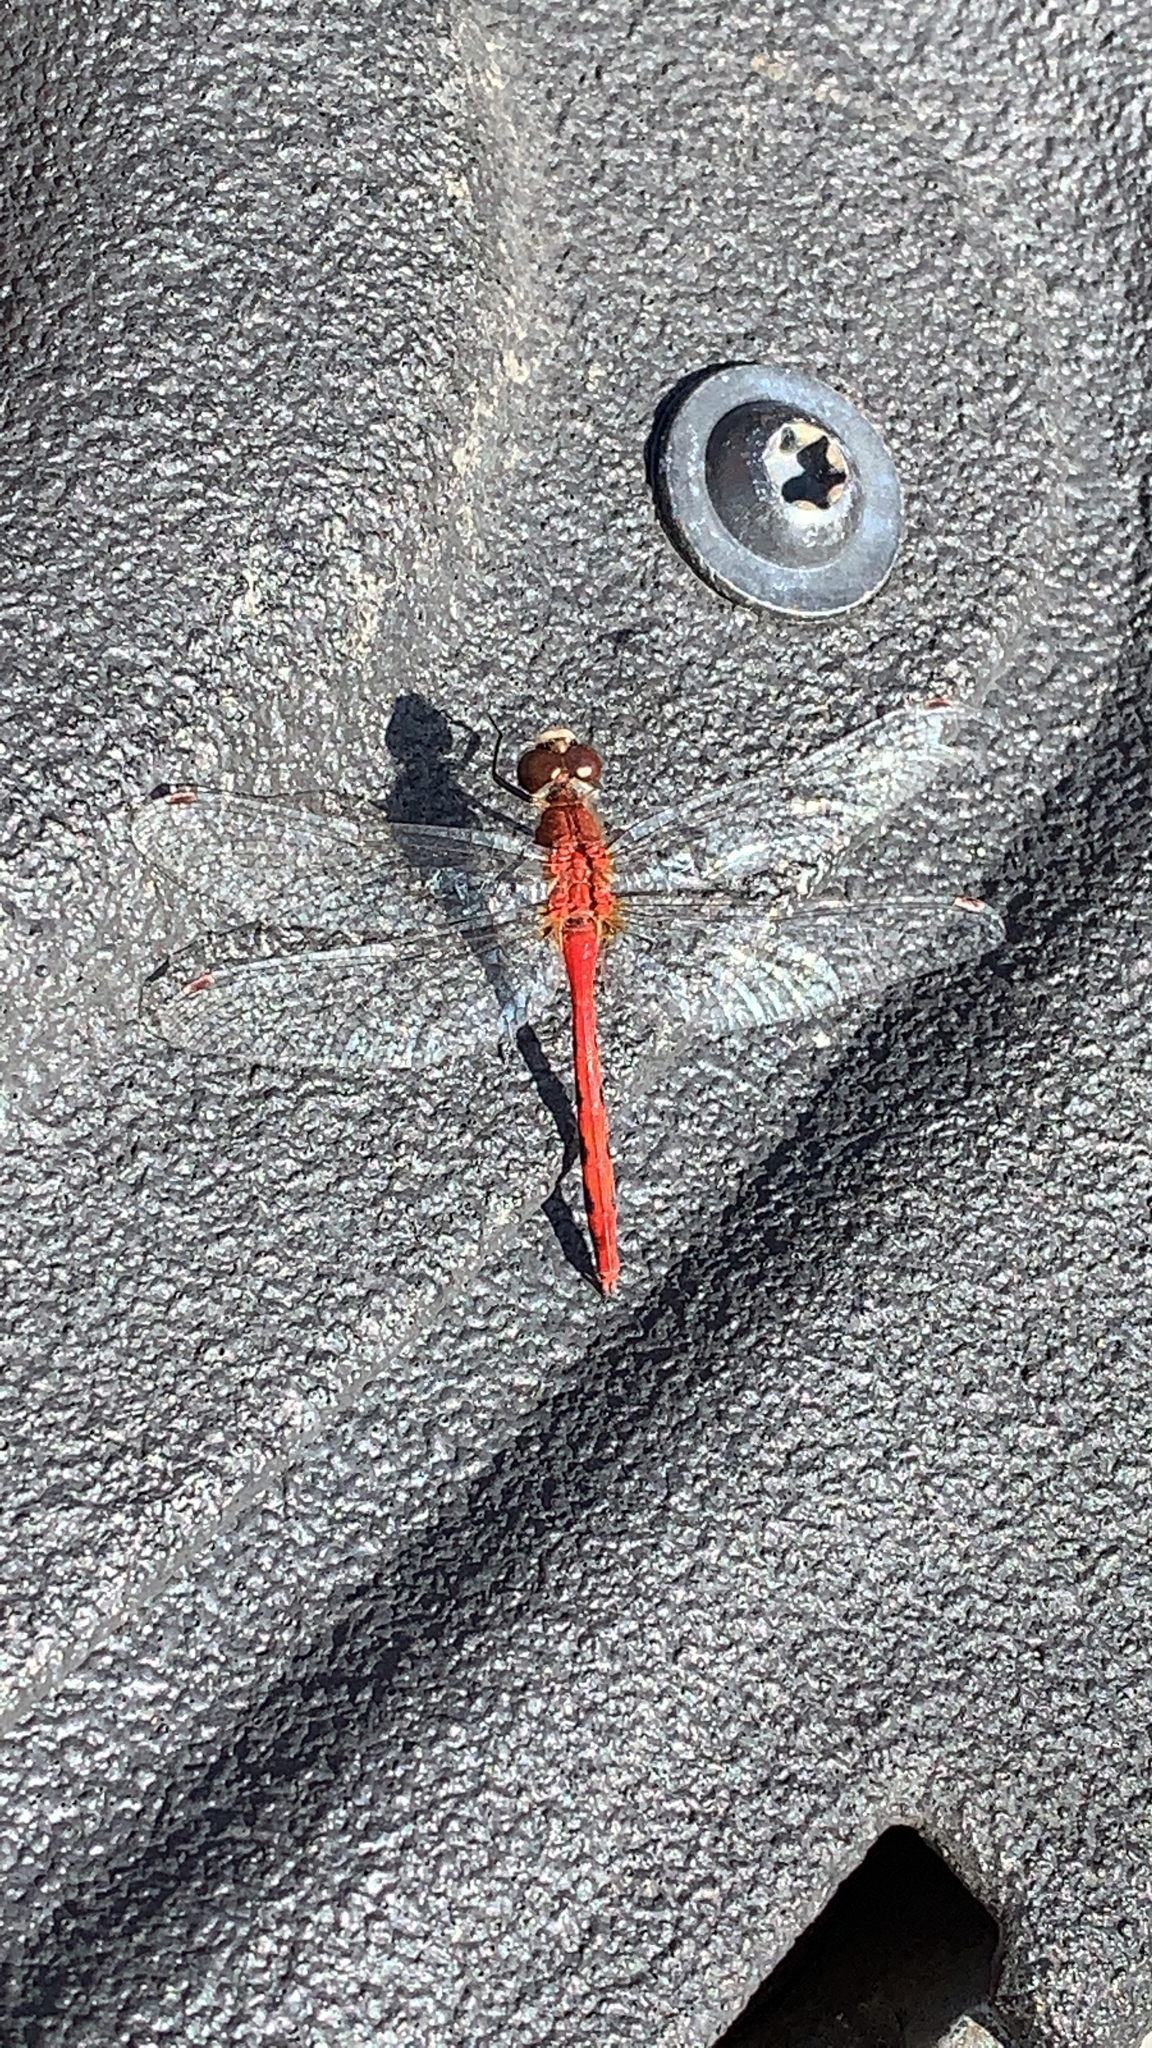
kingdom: Animalia
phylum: Arthropoda
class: Insecta
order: Odonata
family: Libellulidae
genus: Sympetrum
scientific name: Sympetrum obtrusum
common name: White-faced meadowhawk
